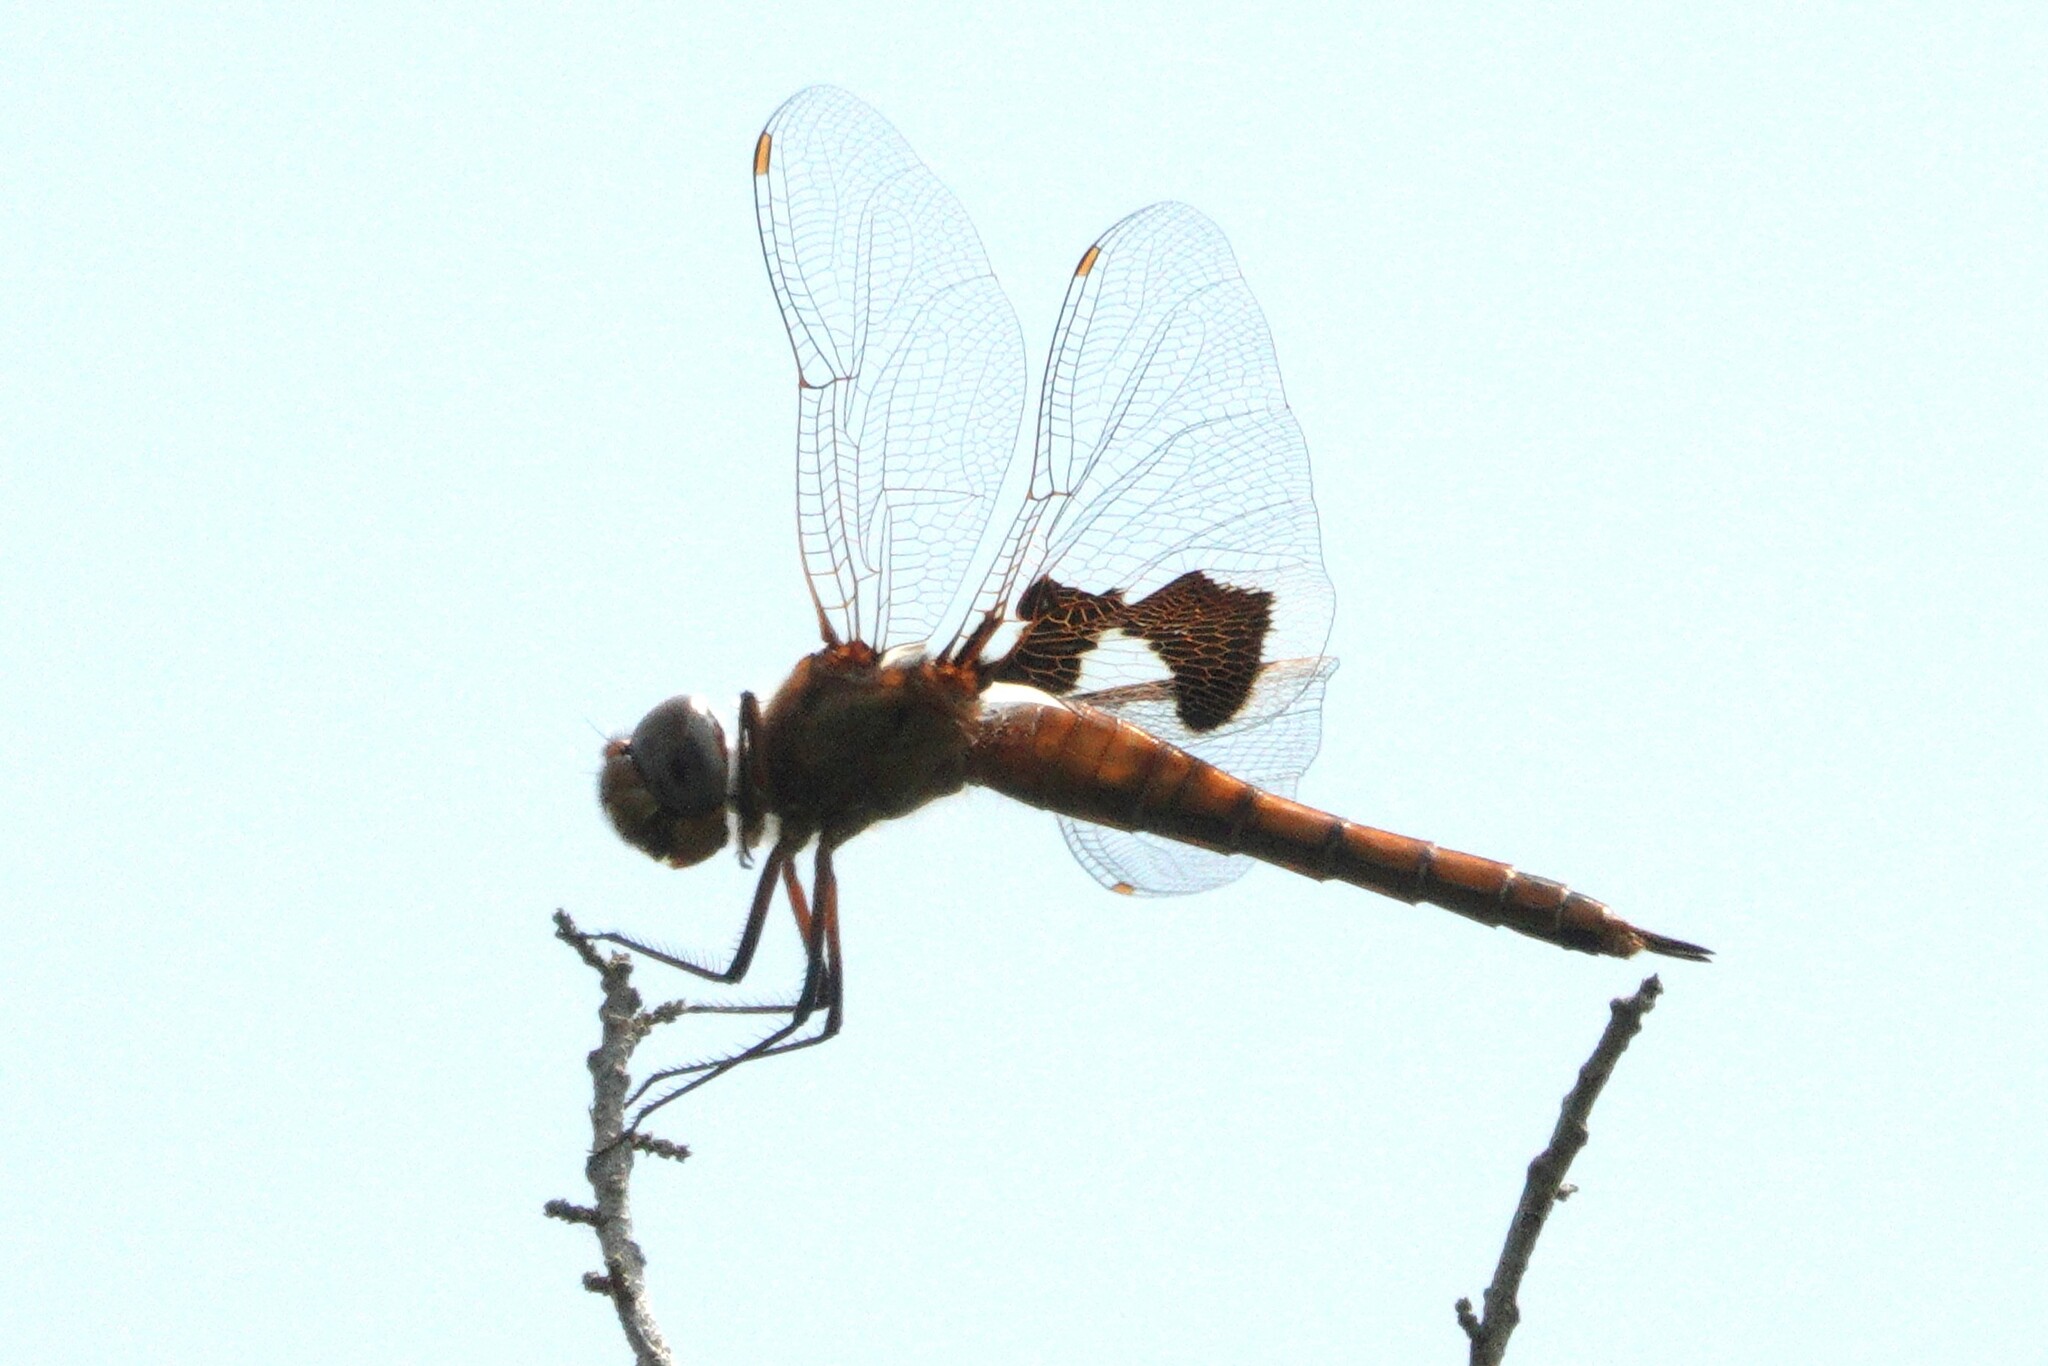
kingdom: Animalia
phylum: Arthropoda
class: Insecta
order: Odonata
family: Libellulidae
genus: Tramea
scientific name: Tramea onusta
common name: Red saddlebags
